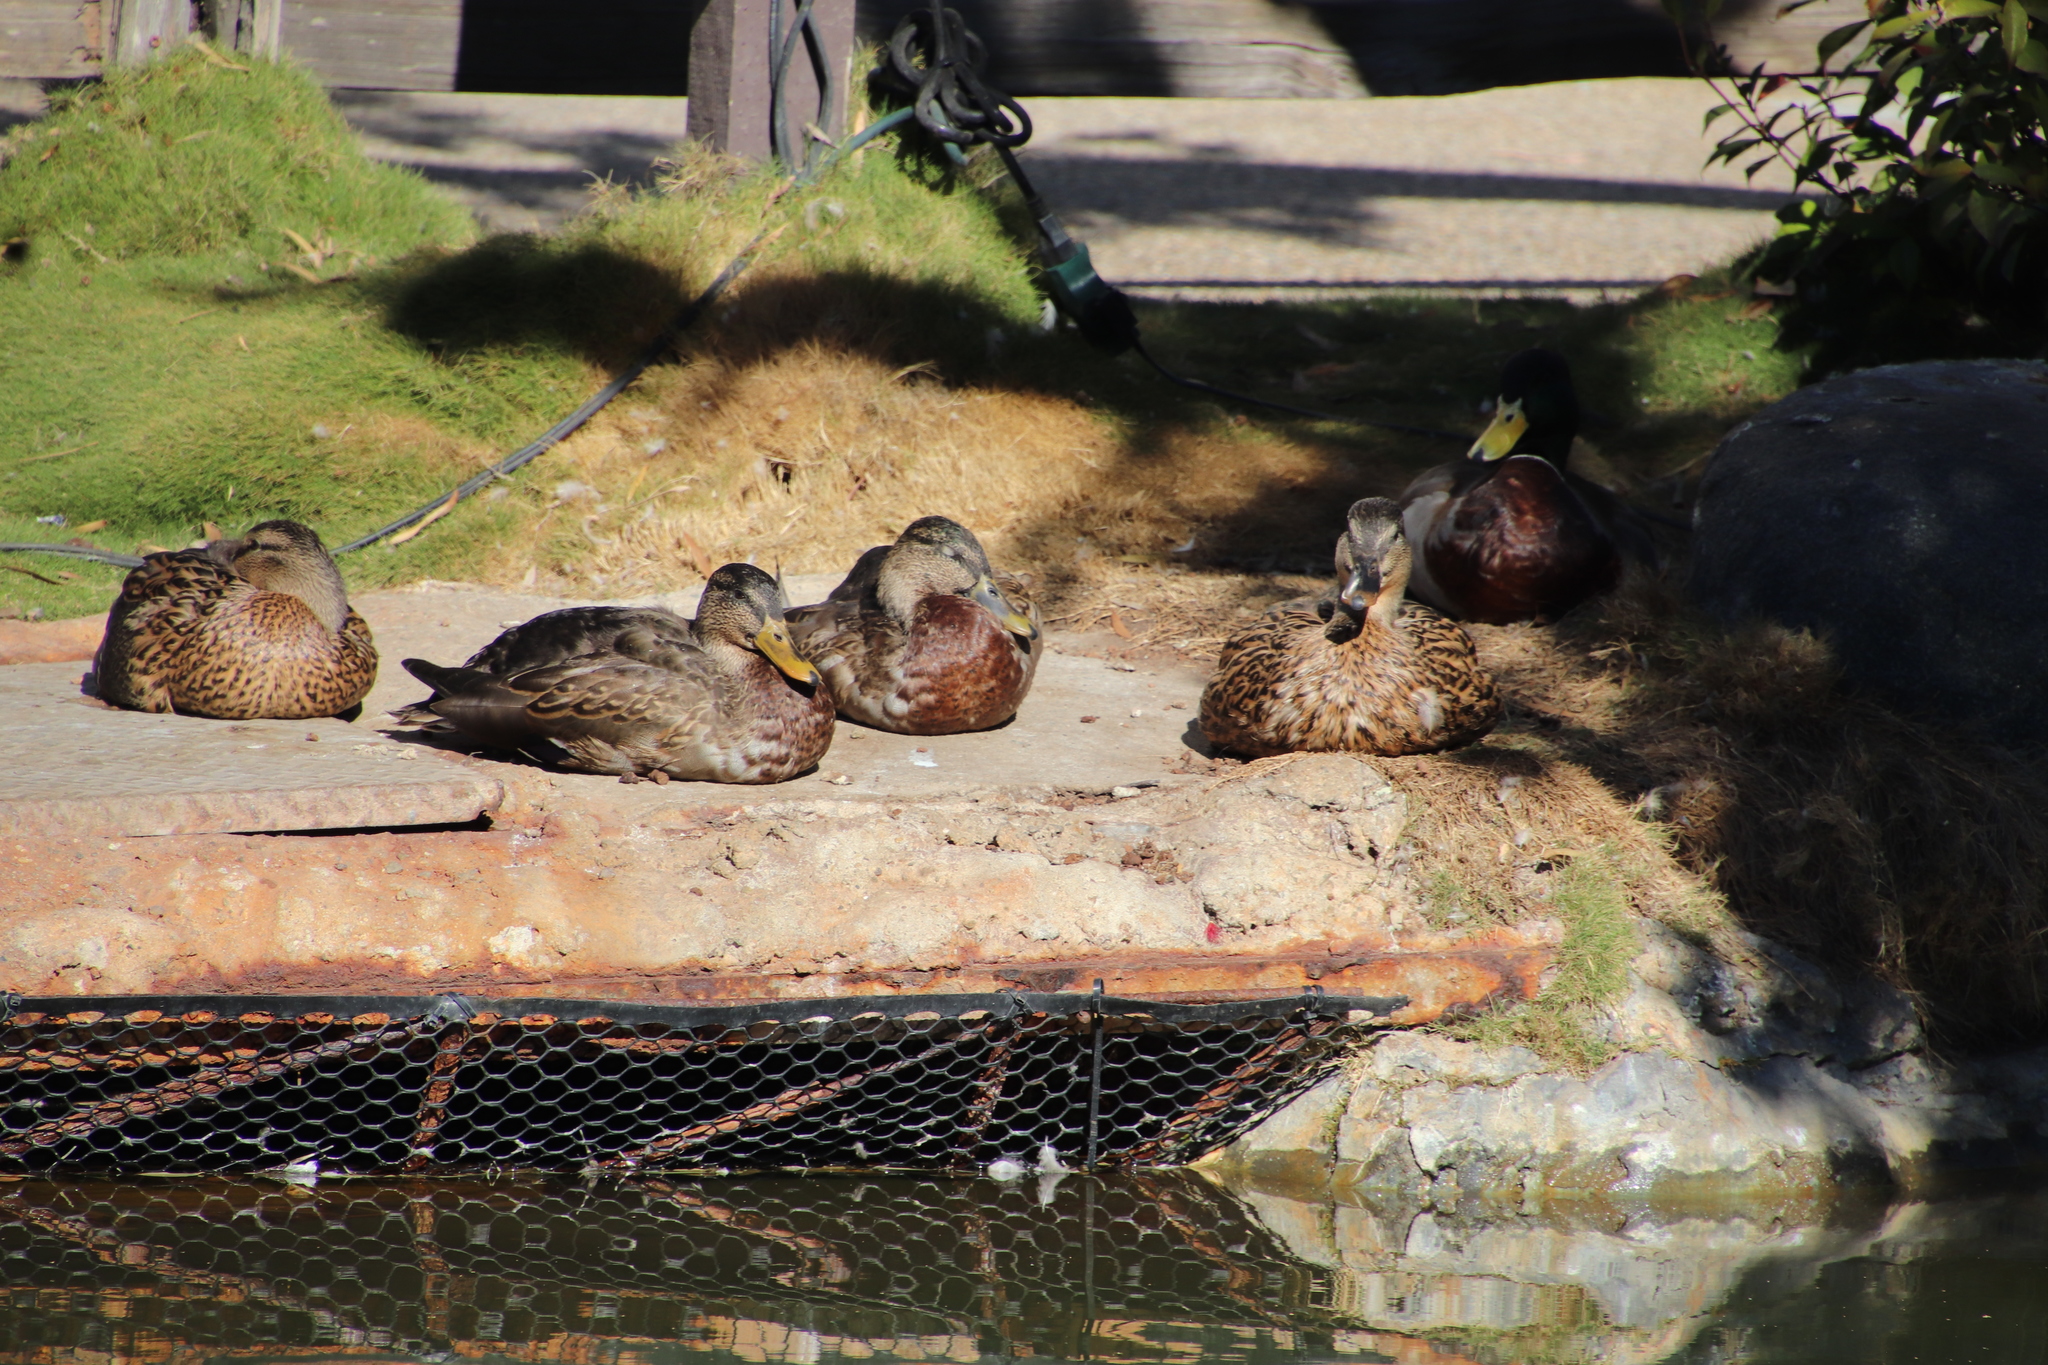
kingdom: Animalia
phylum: Chordata
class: Aves
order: Anseriformes
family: Anatidae
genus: Anas
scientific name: Anas platyrhynchos
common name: Mallard
